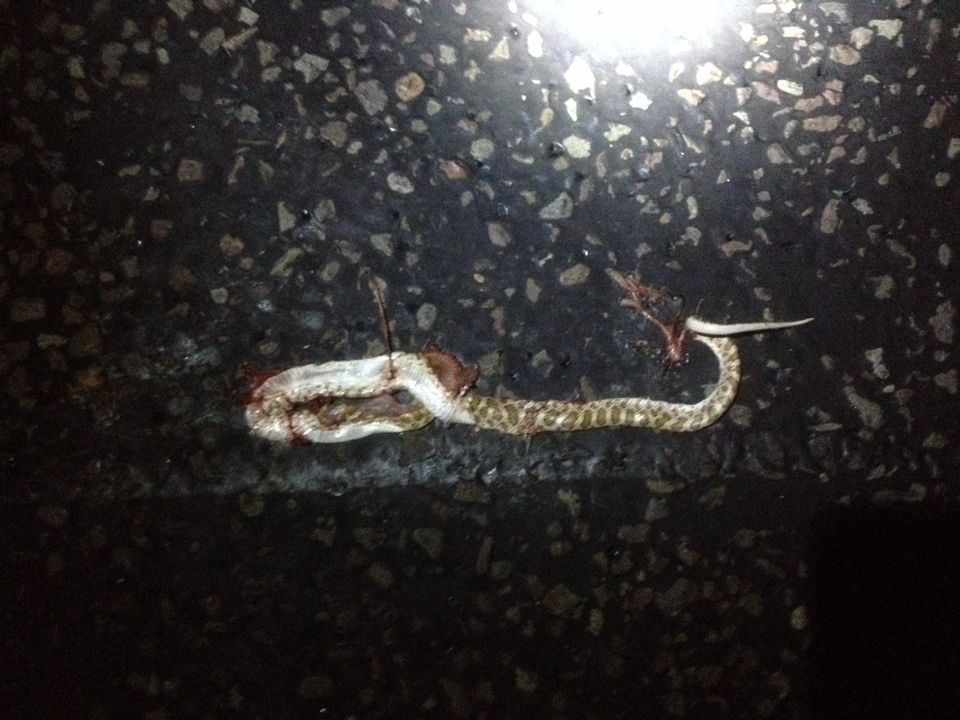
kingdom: Animalia
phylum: Chordata
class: Squamata
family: Colubridae
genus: Arizona
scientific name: Arizona elegans
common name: Glossy snake
